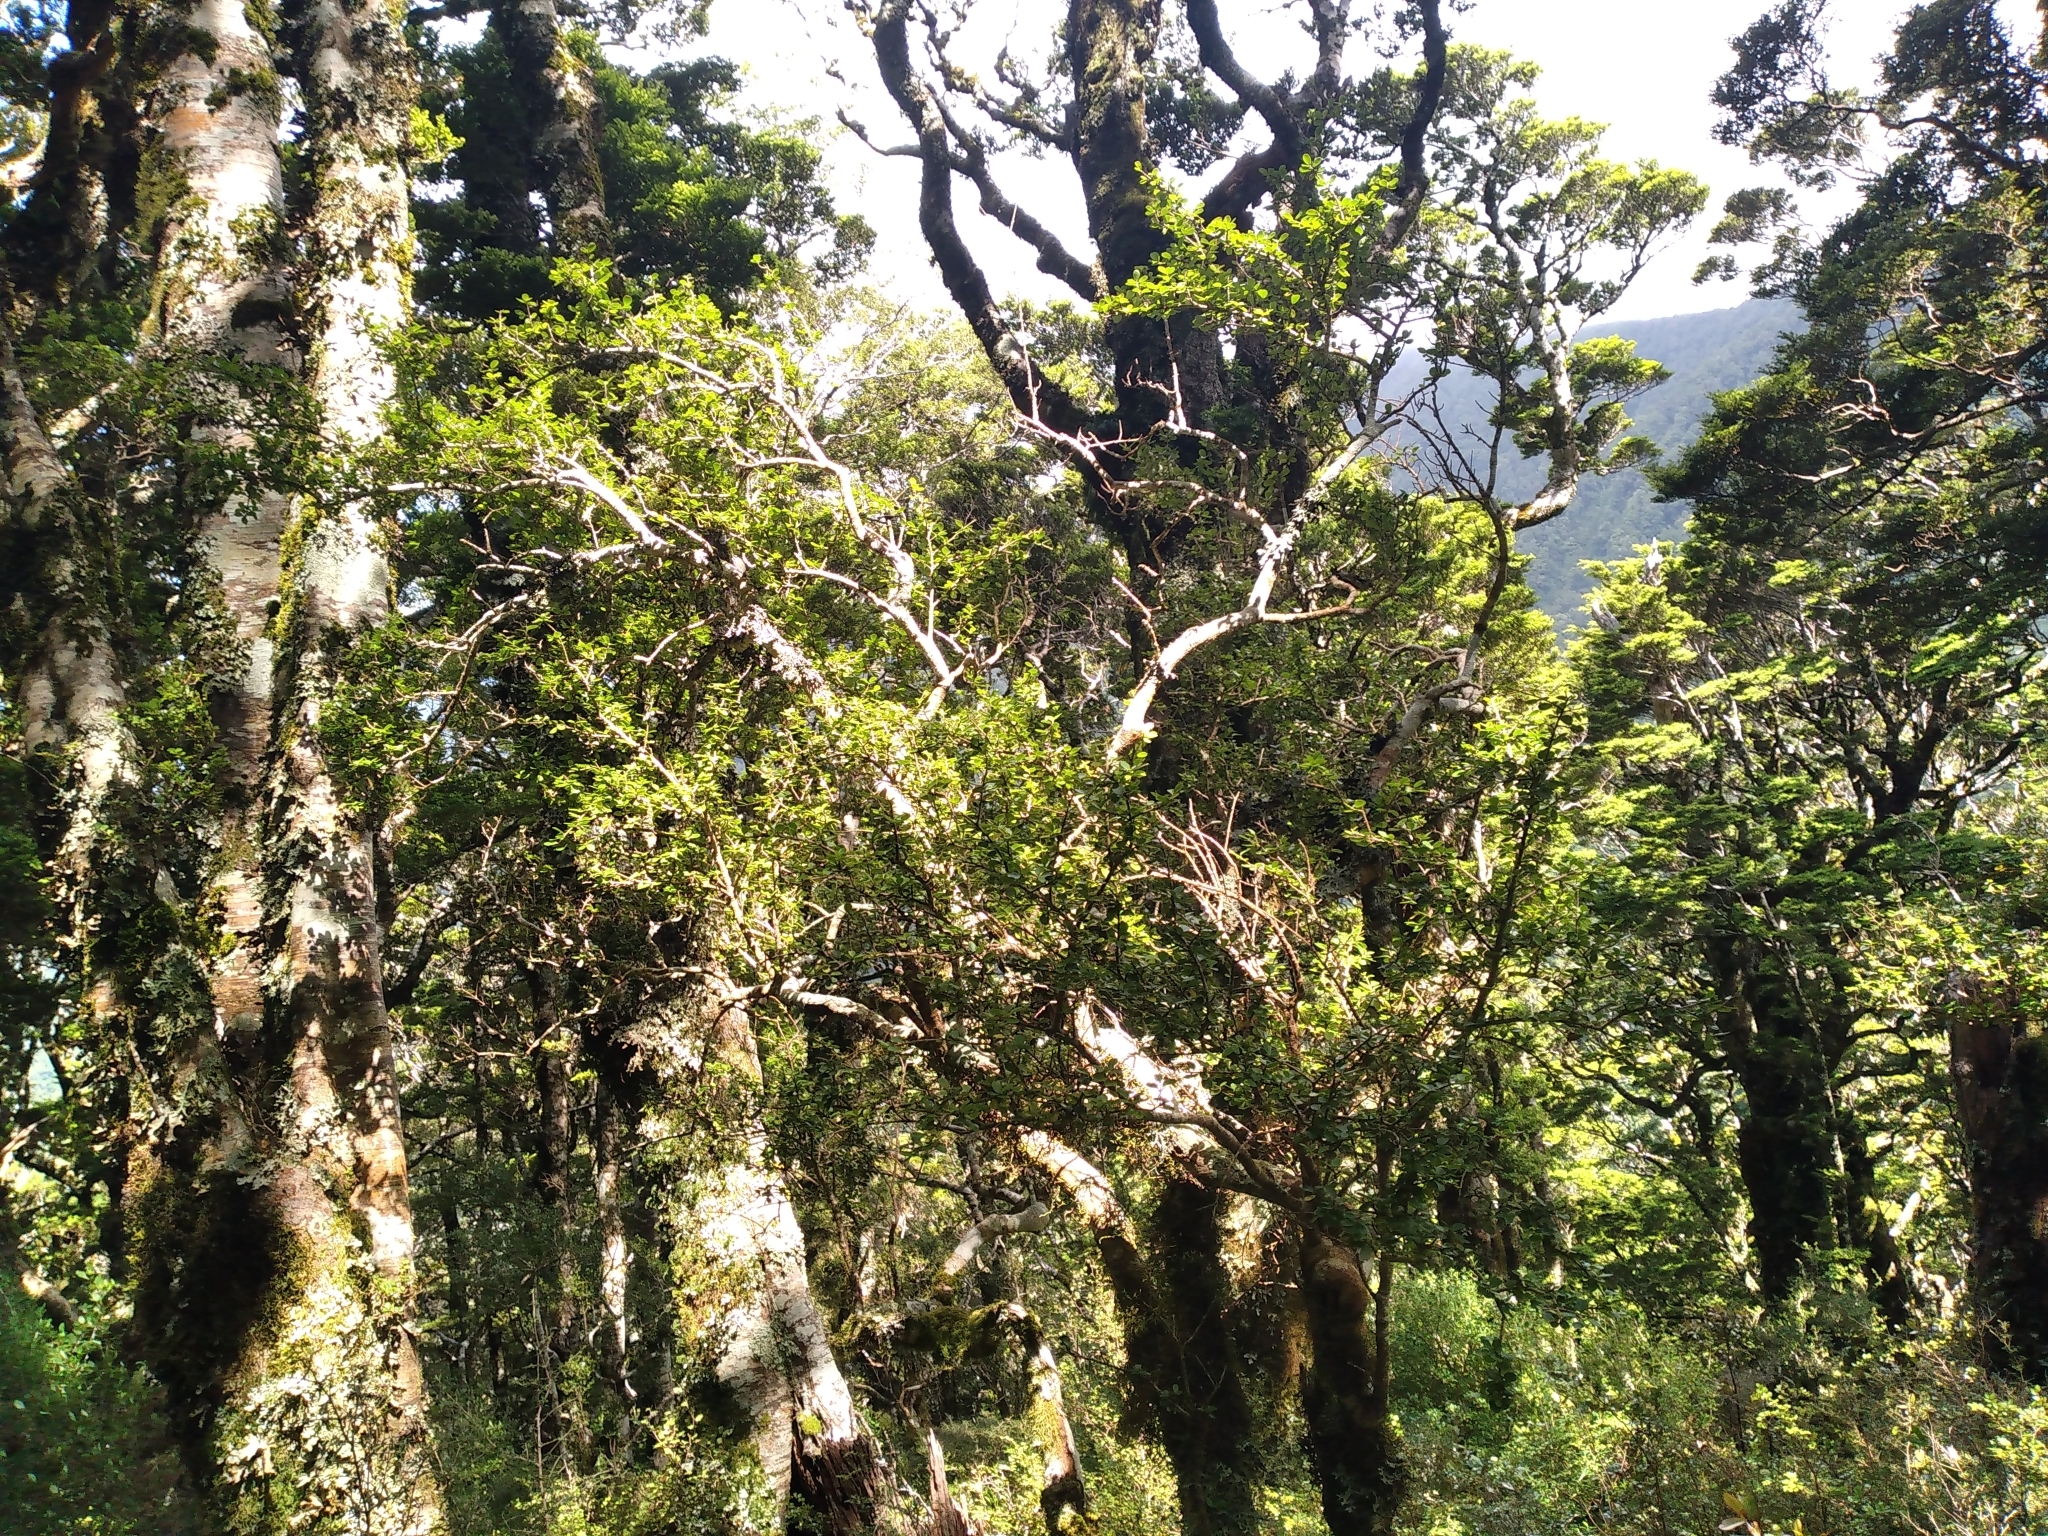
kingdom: Plantae
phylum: Tracheophyta
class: Magnoliopsida
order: Ericales
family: Primulaceae
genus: Myrsine
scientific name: Myrsine umbricola
